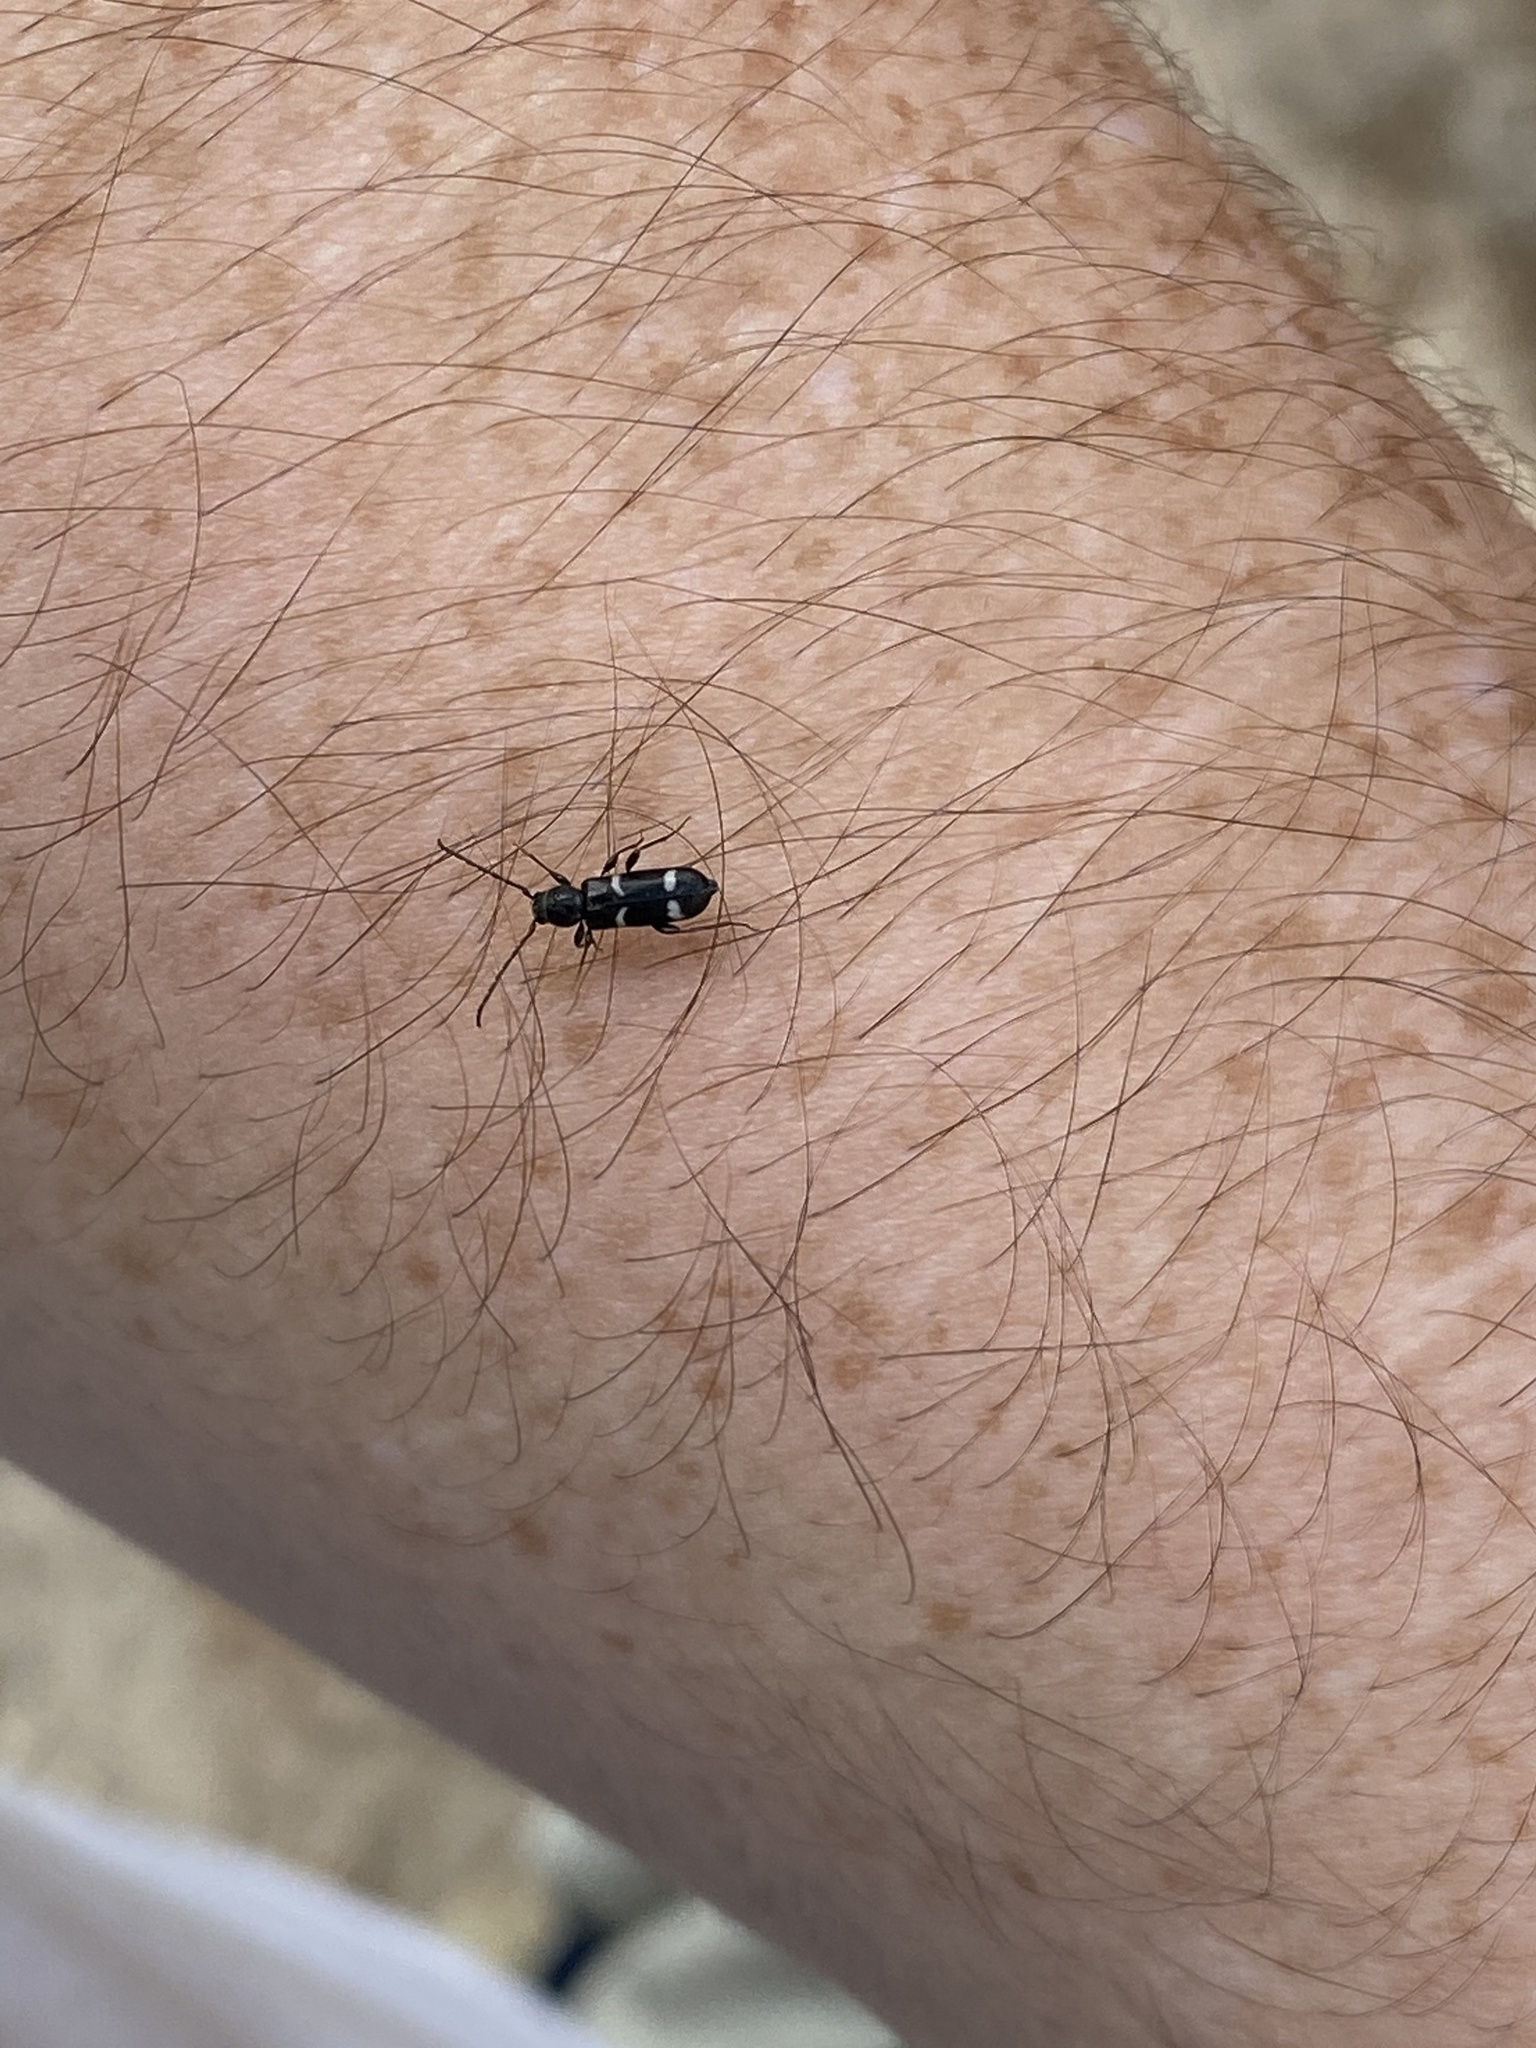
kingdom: Animalia
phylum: Arthropoda
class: Insecta
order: Coleoptera
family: Cerambycidae
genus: Phymatodes
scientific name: Phymatodes varius
